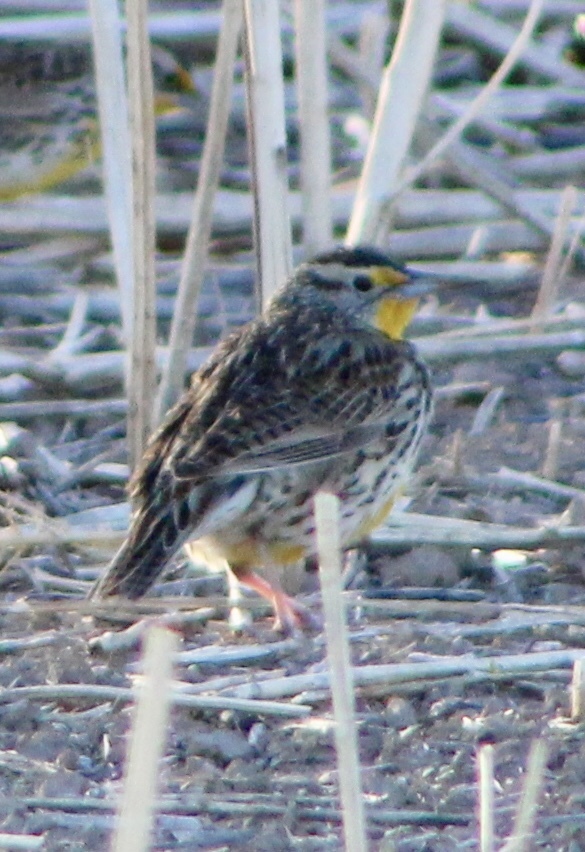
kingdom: Animalia
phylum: Chordata
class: Aves
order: Passeriformes
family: Icteridae
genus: Sturnella
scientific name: Sturnella neglecta
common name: Western meadowlark
